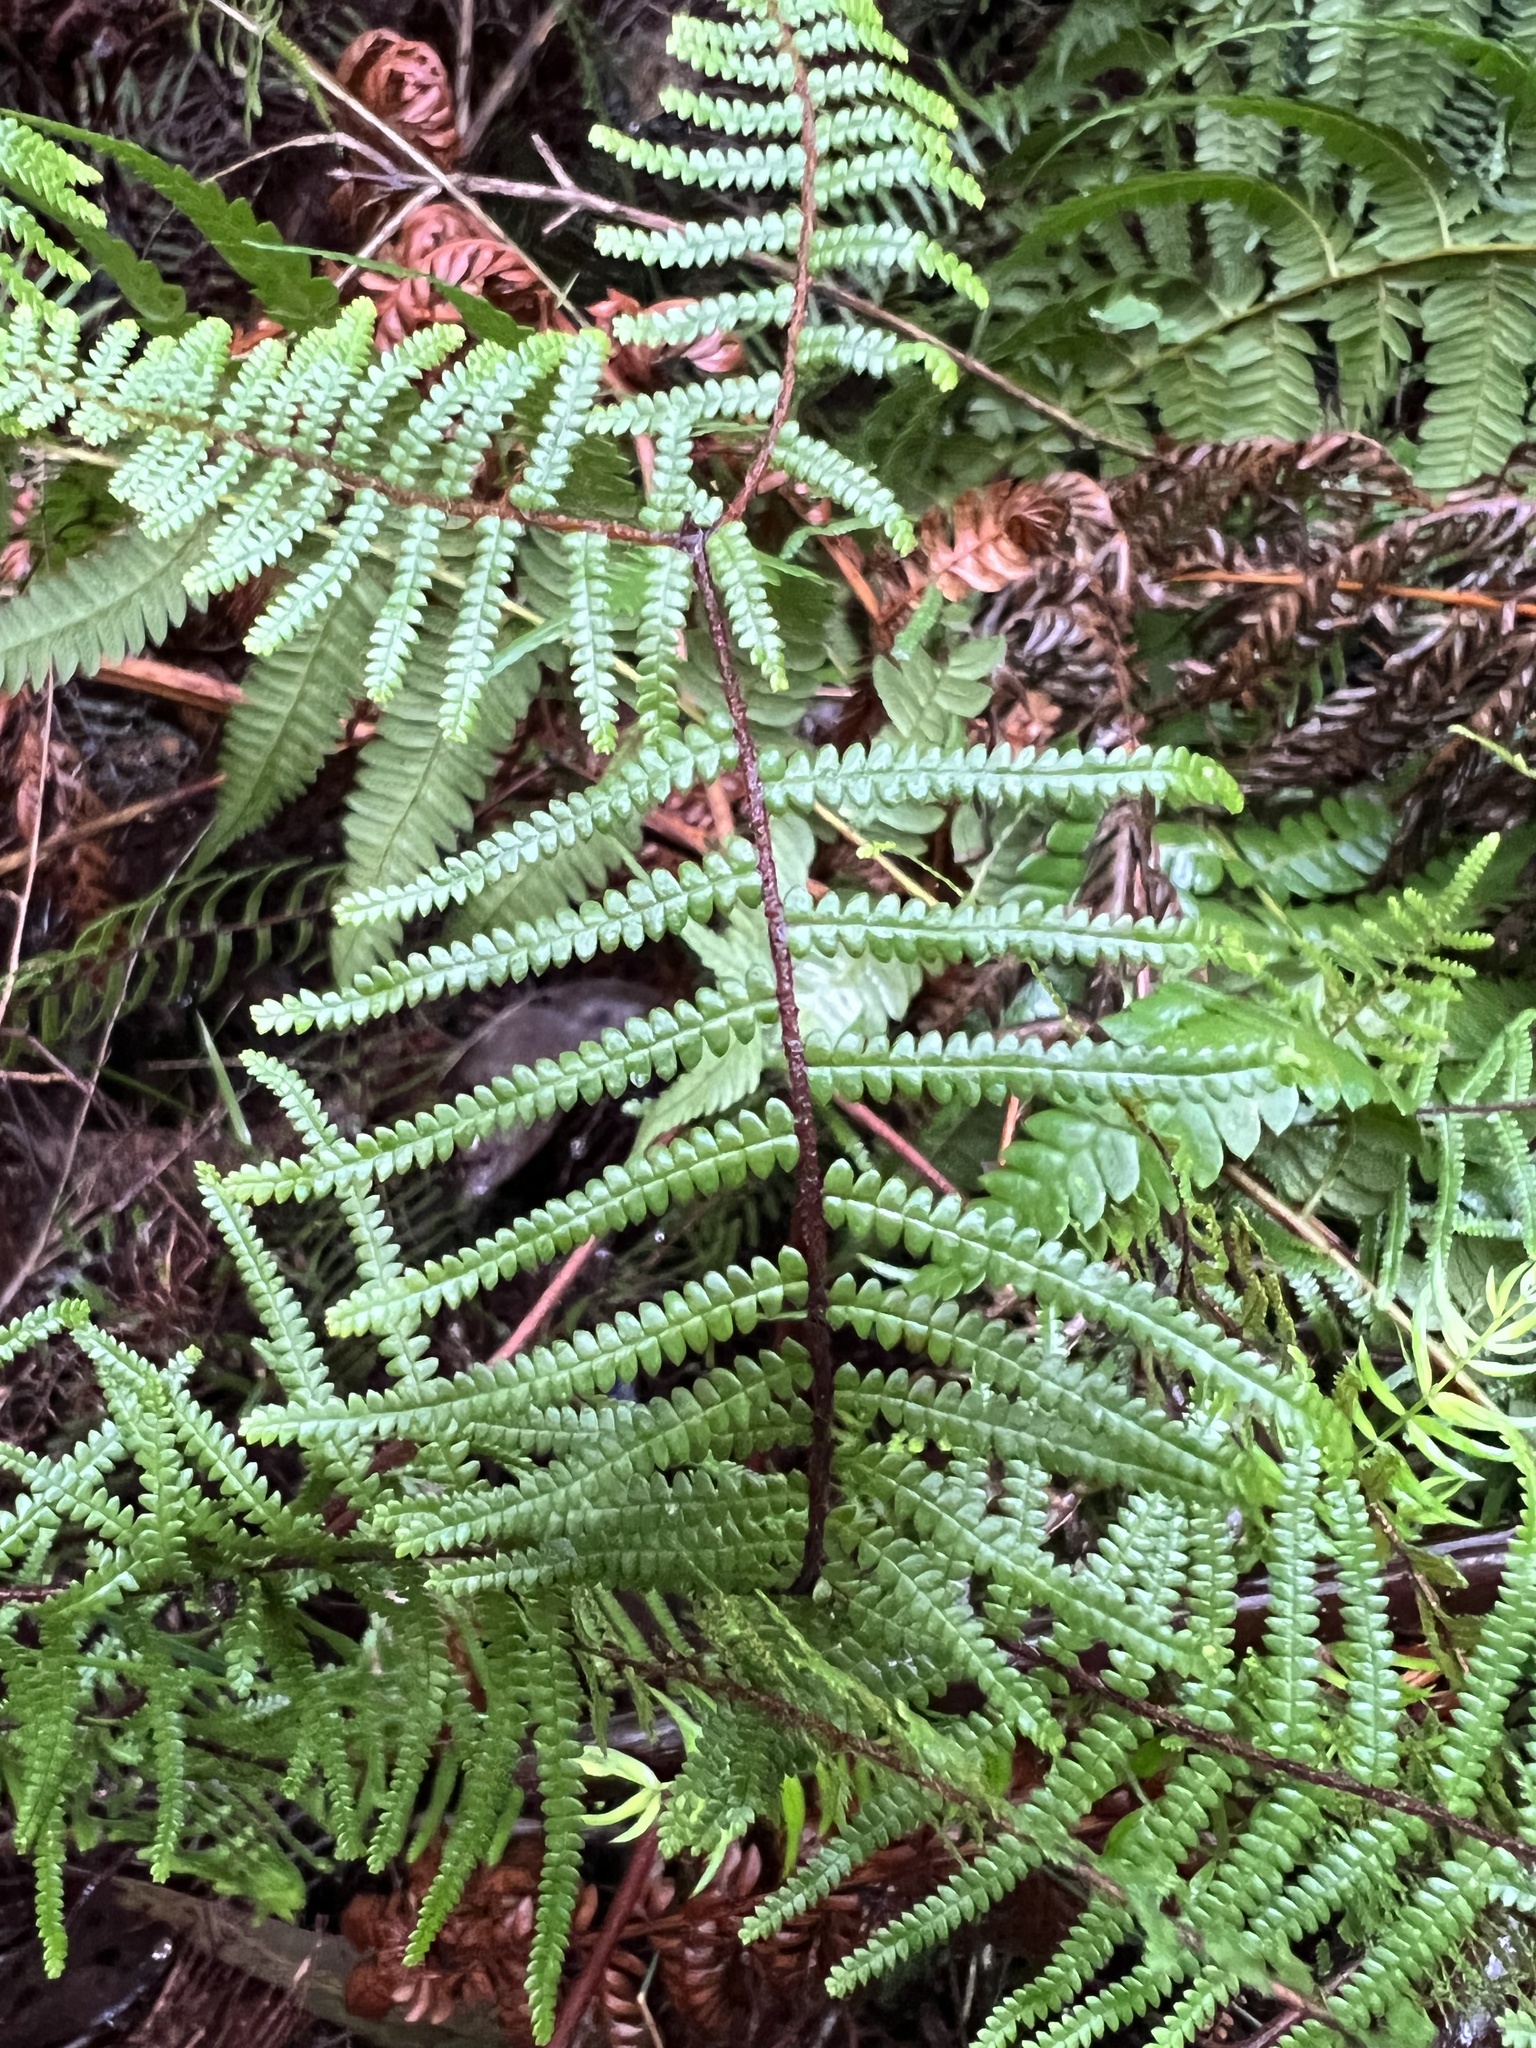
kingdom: Plantae
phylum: Tracheophyta
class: Polypodiopsida
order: Gleicheniales
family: Gleicheniaceae
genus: Gleichenia
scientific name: Gleichenia microphylla
